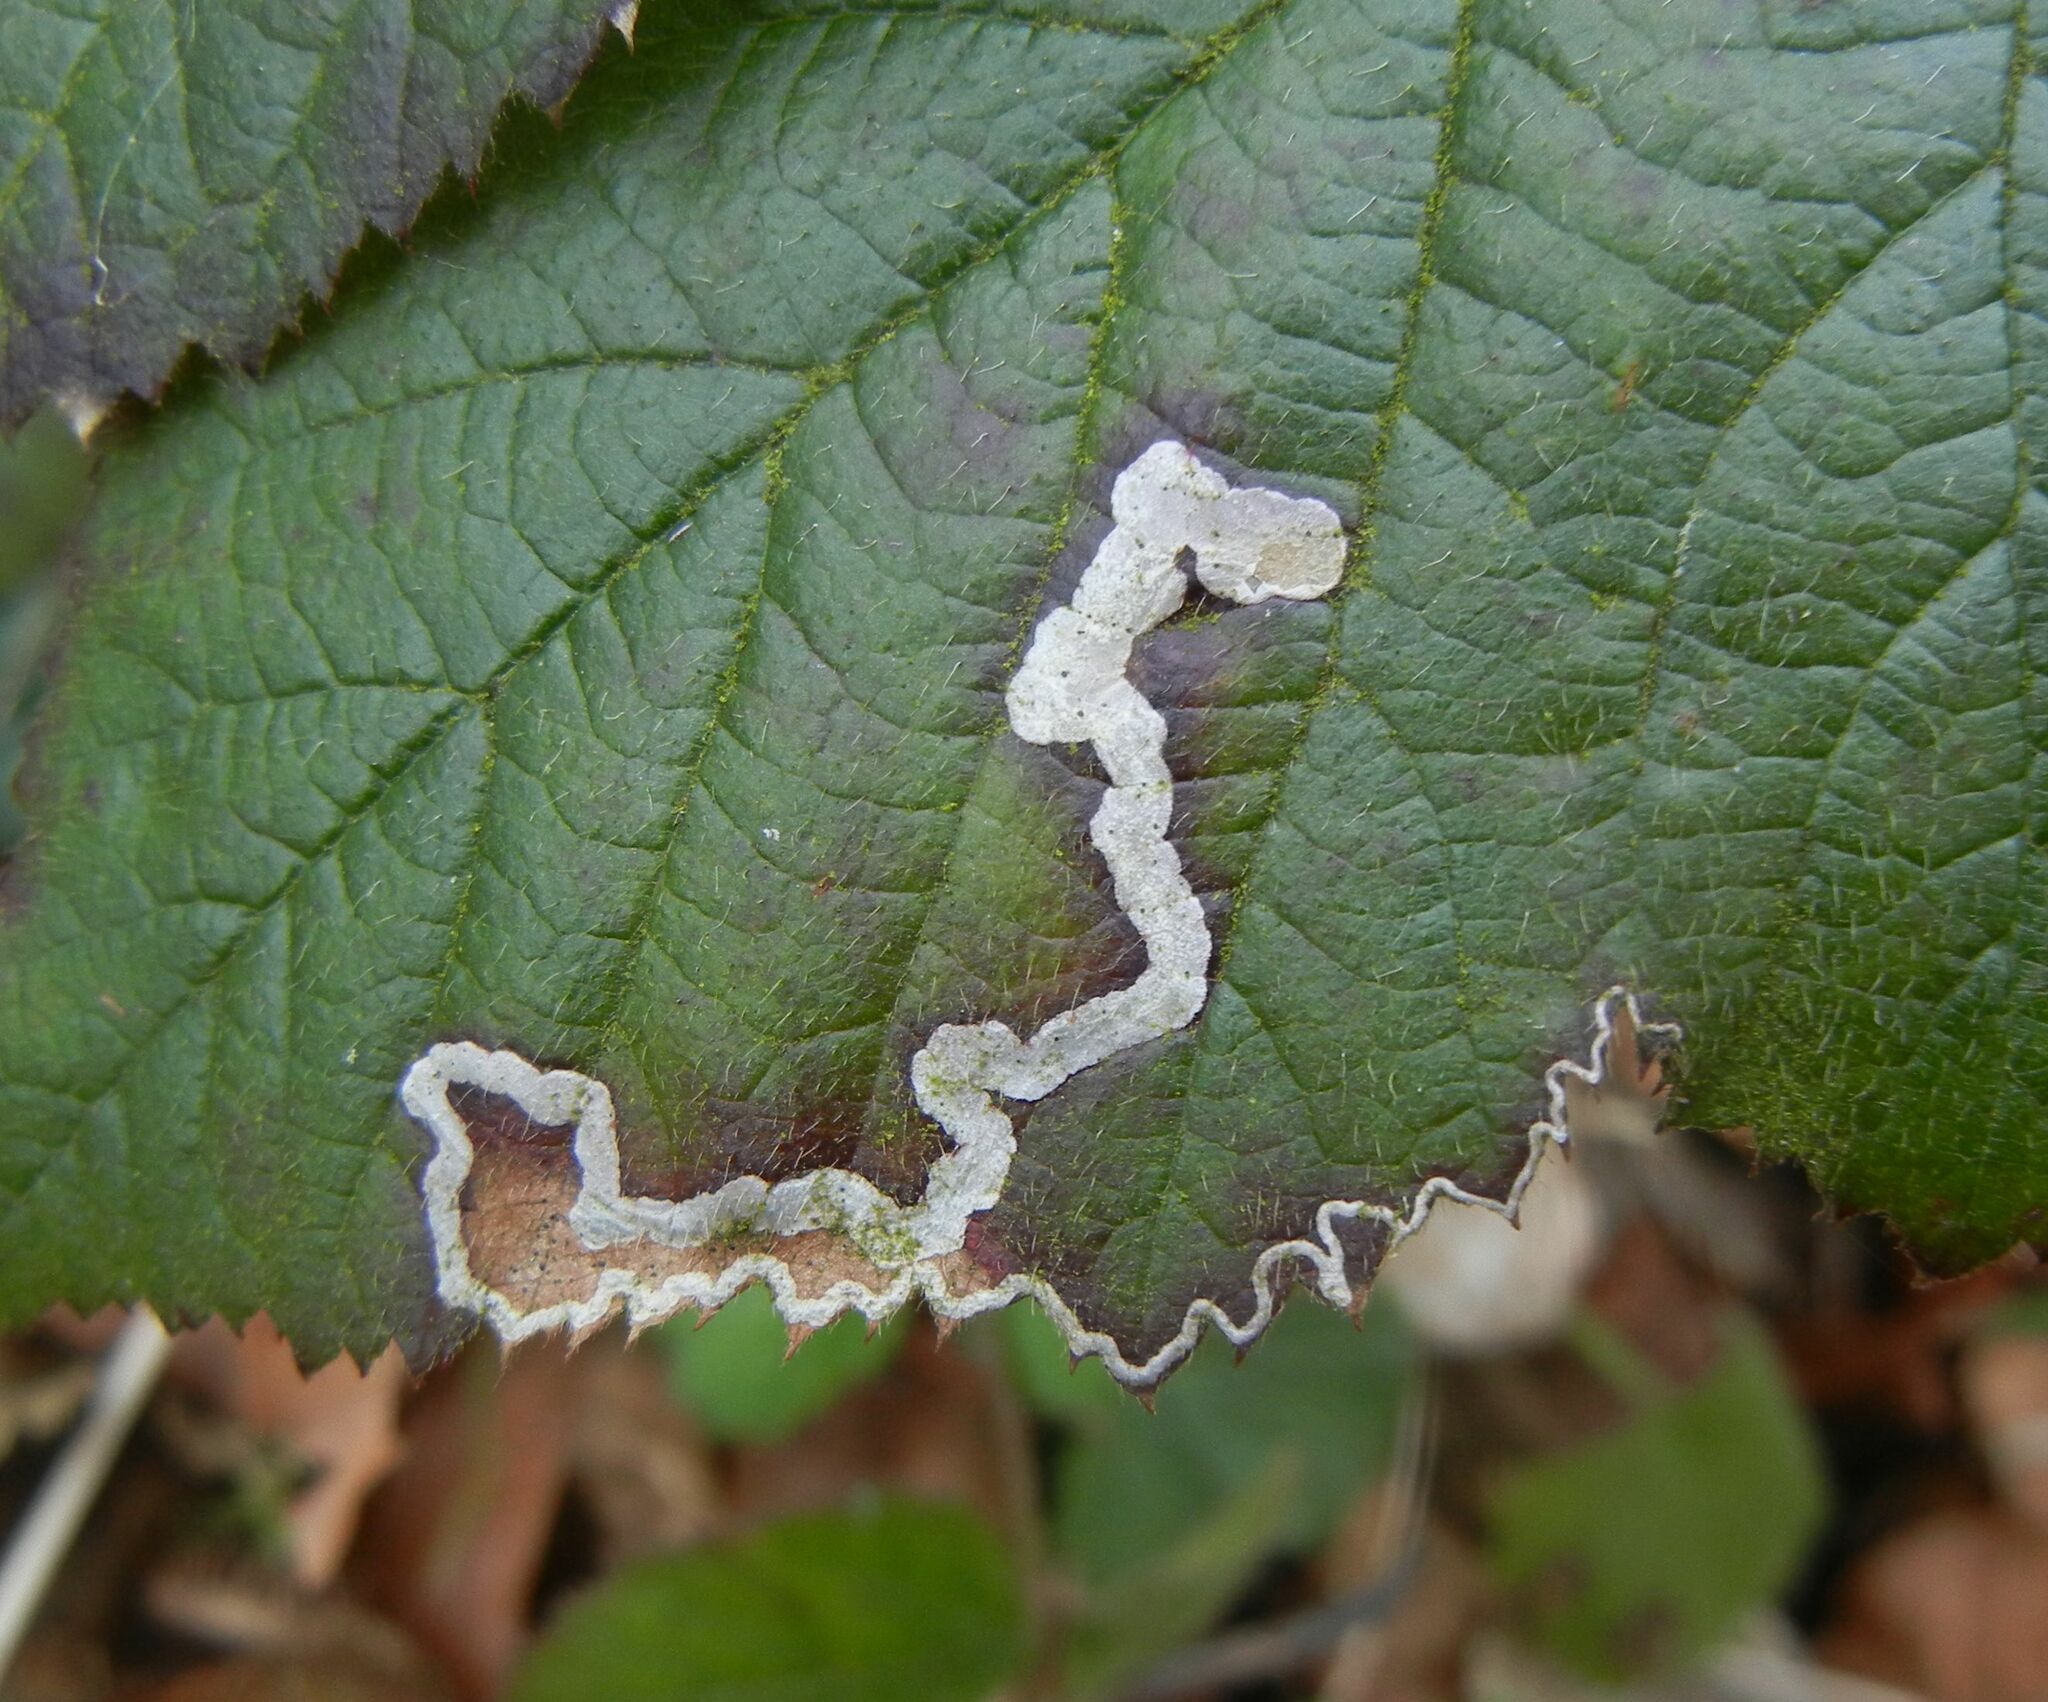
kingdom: Animalia
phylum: Arthropoda
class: Insecta
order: Lepidoptera
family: Nepticulidae
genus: Stigmella
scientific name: Stigmella aurella
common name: Golden pigmy
